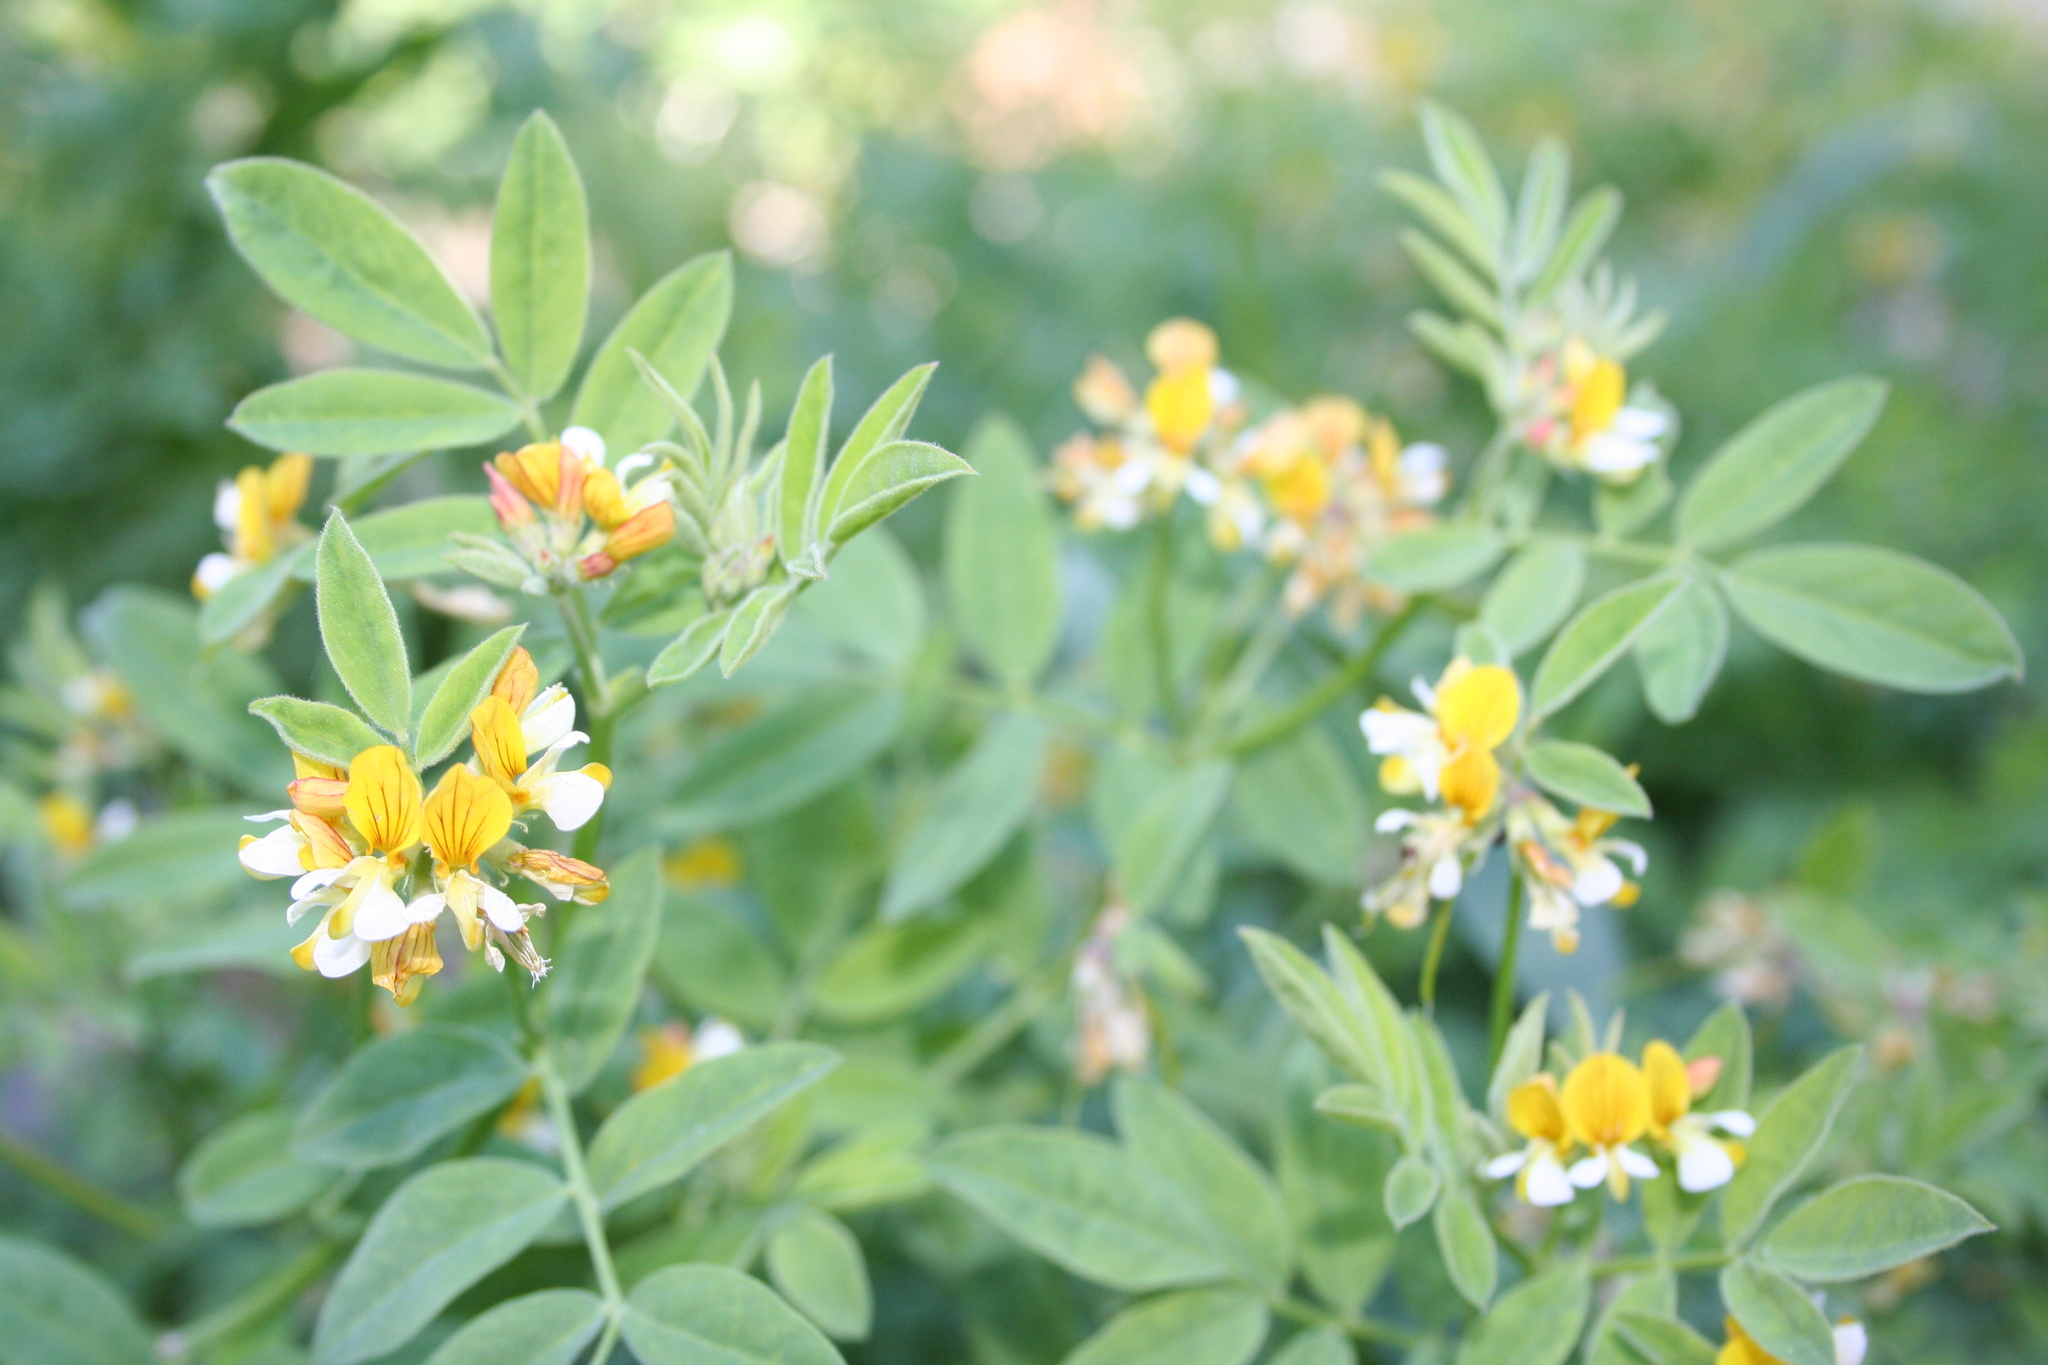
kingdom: Plantae
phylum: Tracheophyta
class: Magnoliopsida
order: Fabales
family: Fabaceae
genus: Hosackia
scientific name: Hosackia oblongifolia
